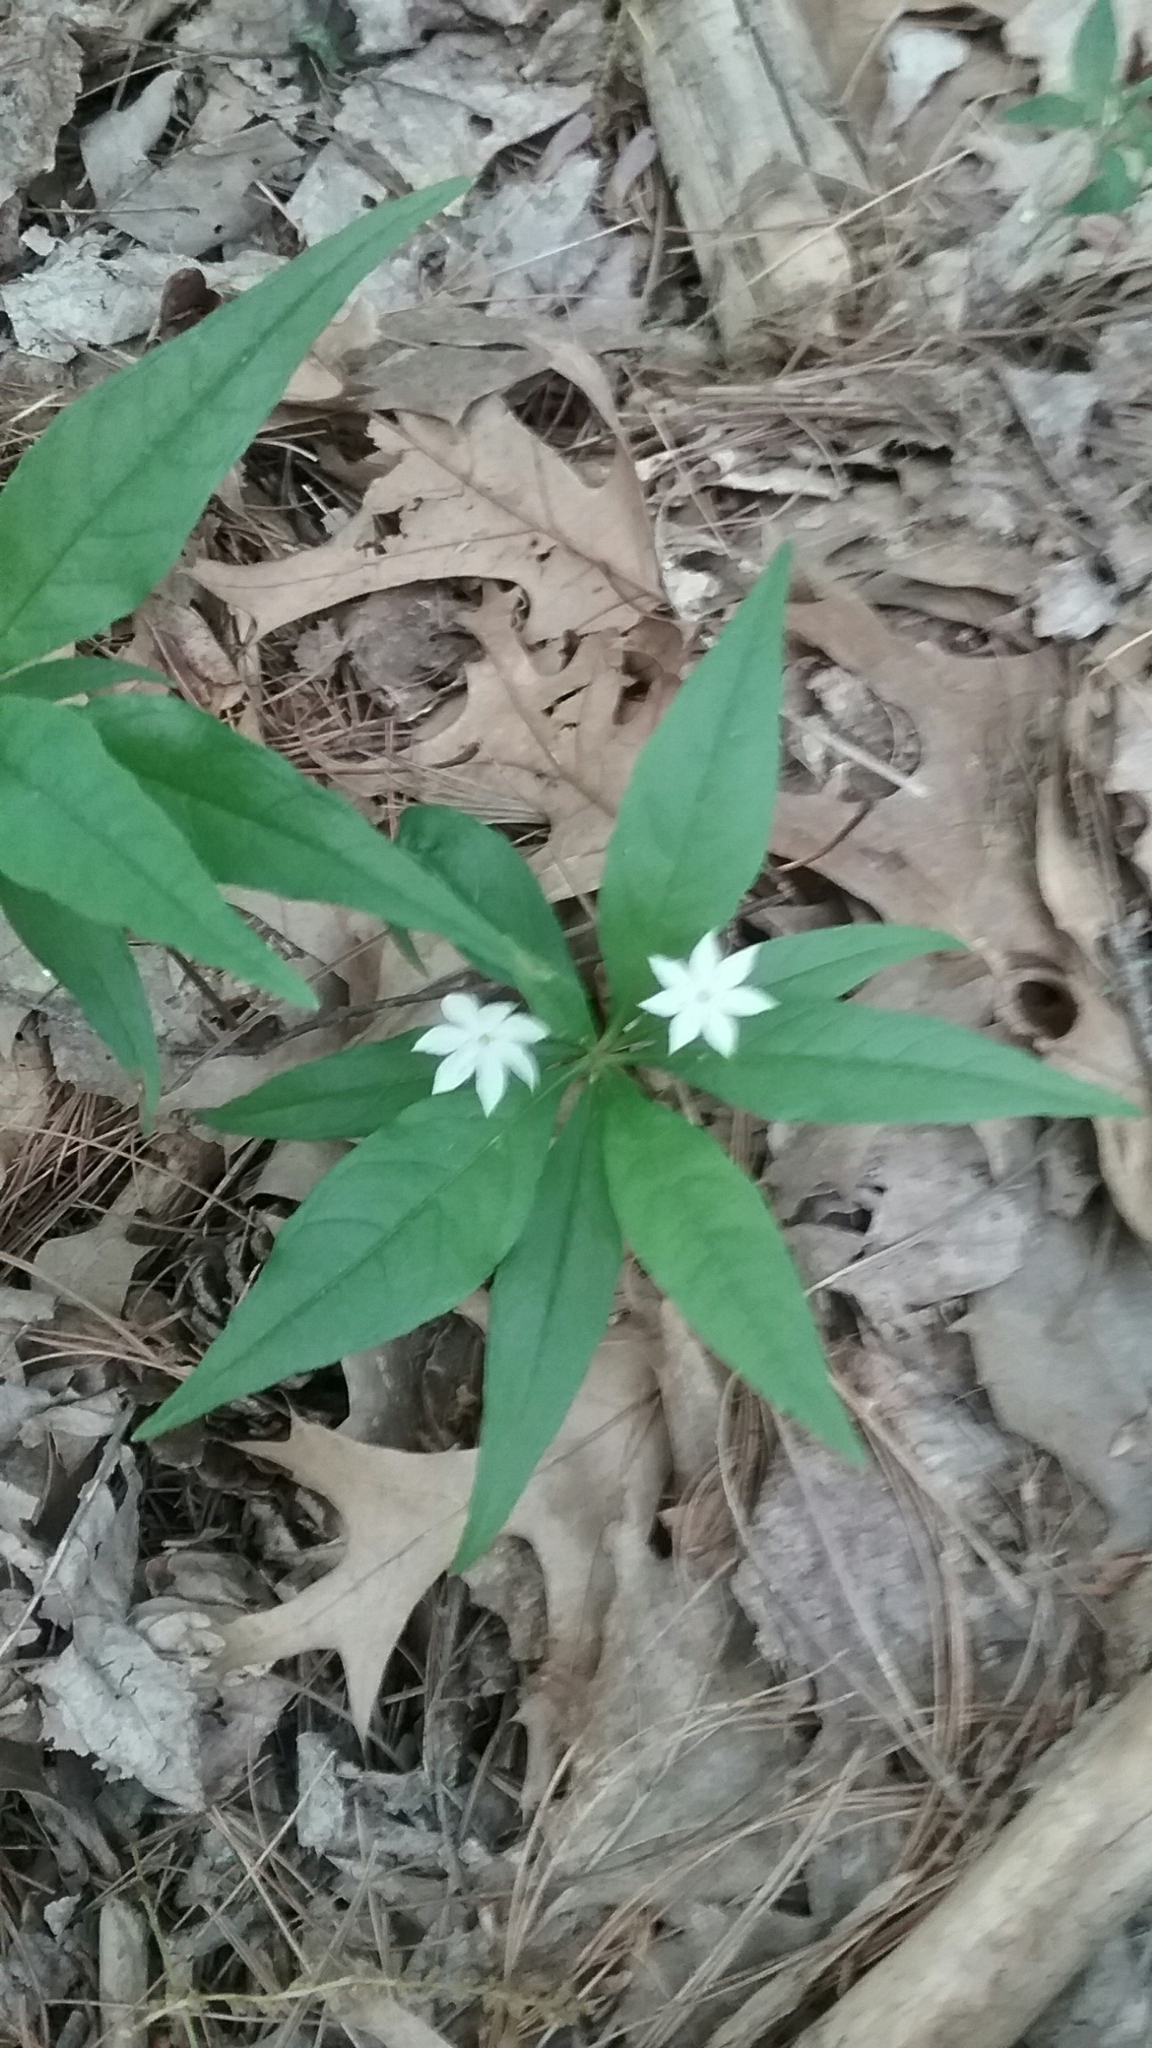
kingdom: Plantae
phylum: Tracheophyta
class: Magnoliopsida
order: Ericales
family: Primulaceae
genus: Lysimachia
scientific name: Lysimachia borealis
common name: American starflower
